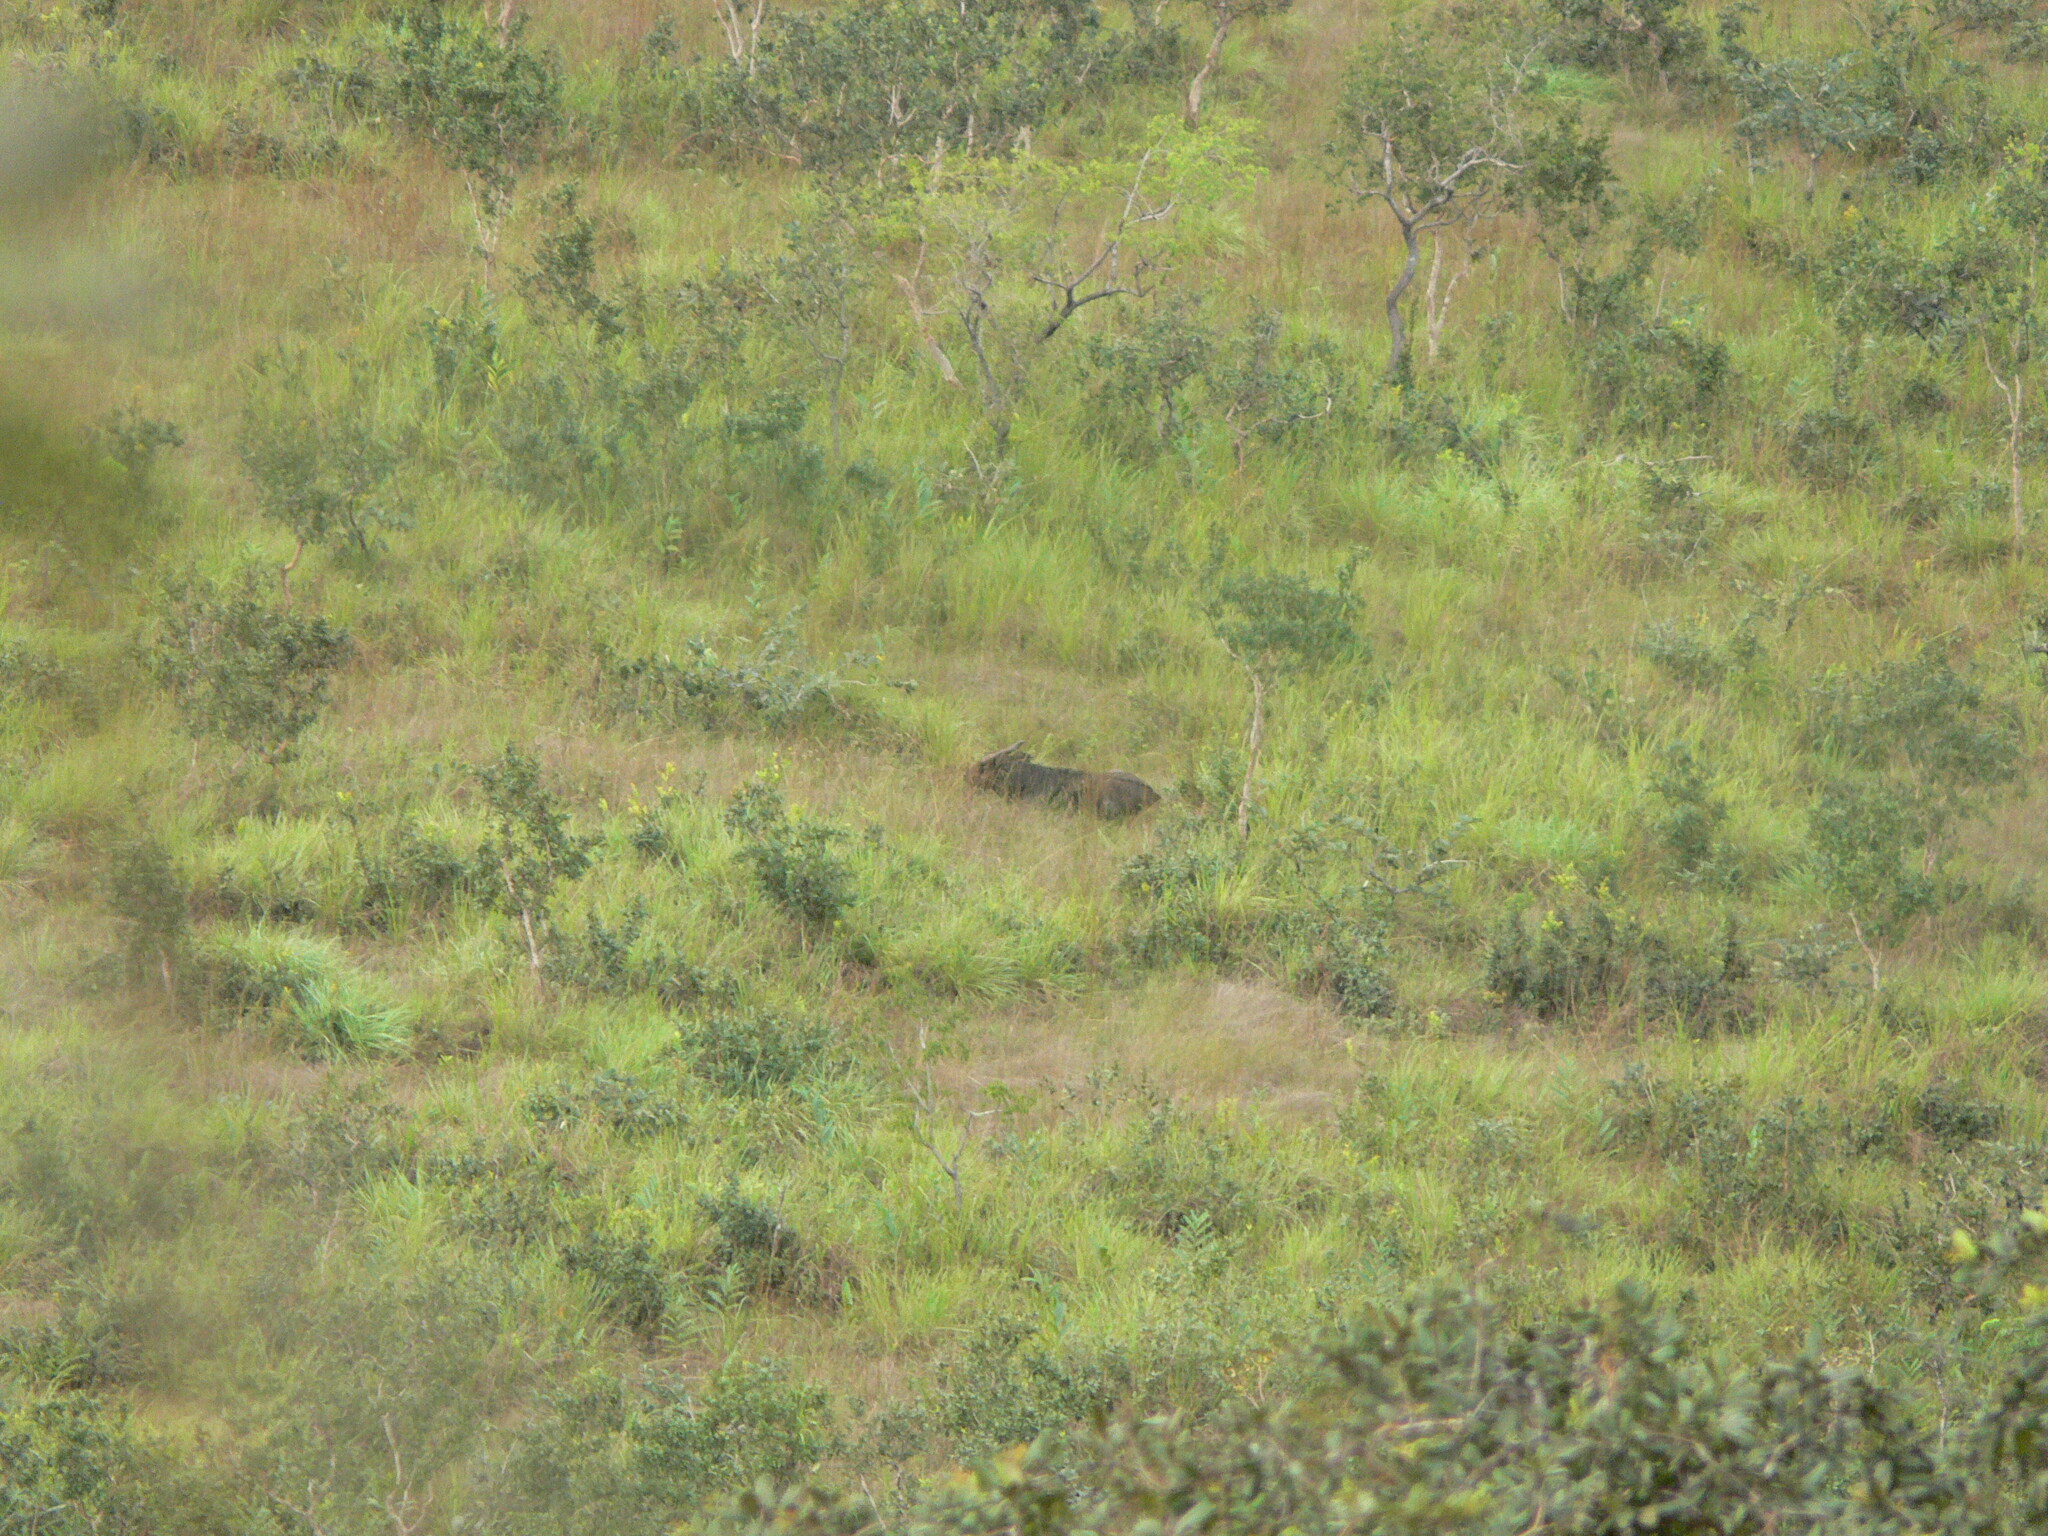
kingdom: Animalia
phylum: Chordata
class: Mammalia
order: Artiodactyla
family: Bovidae
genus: Syncerus
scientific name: Syncerus caffer
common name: African buffalo
